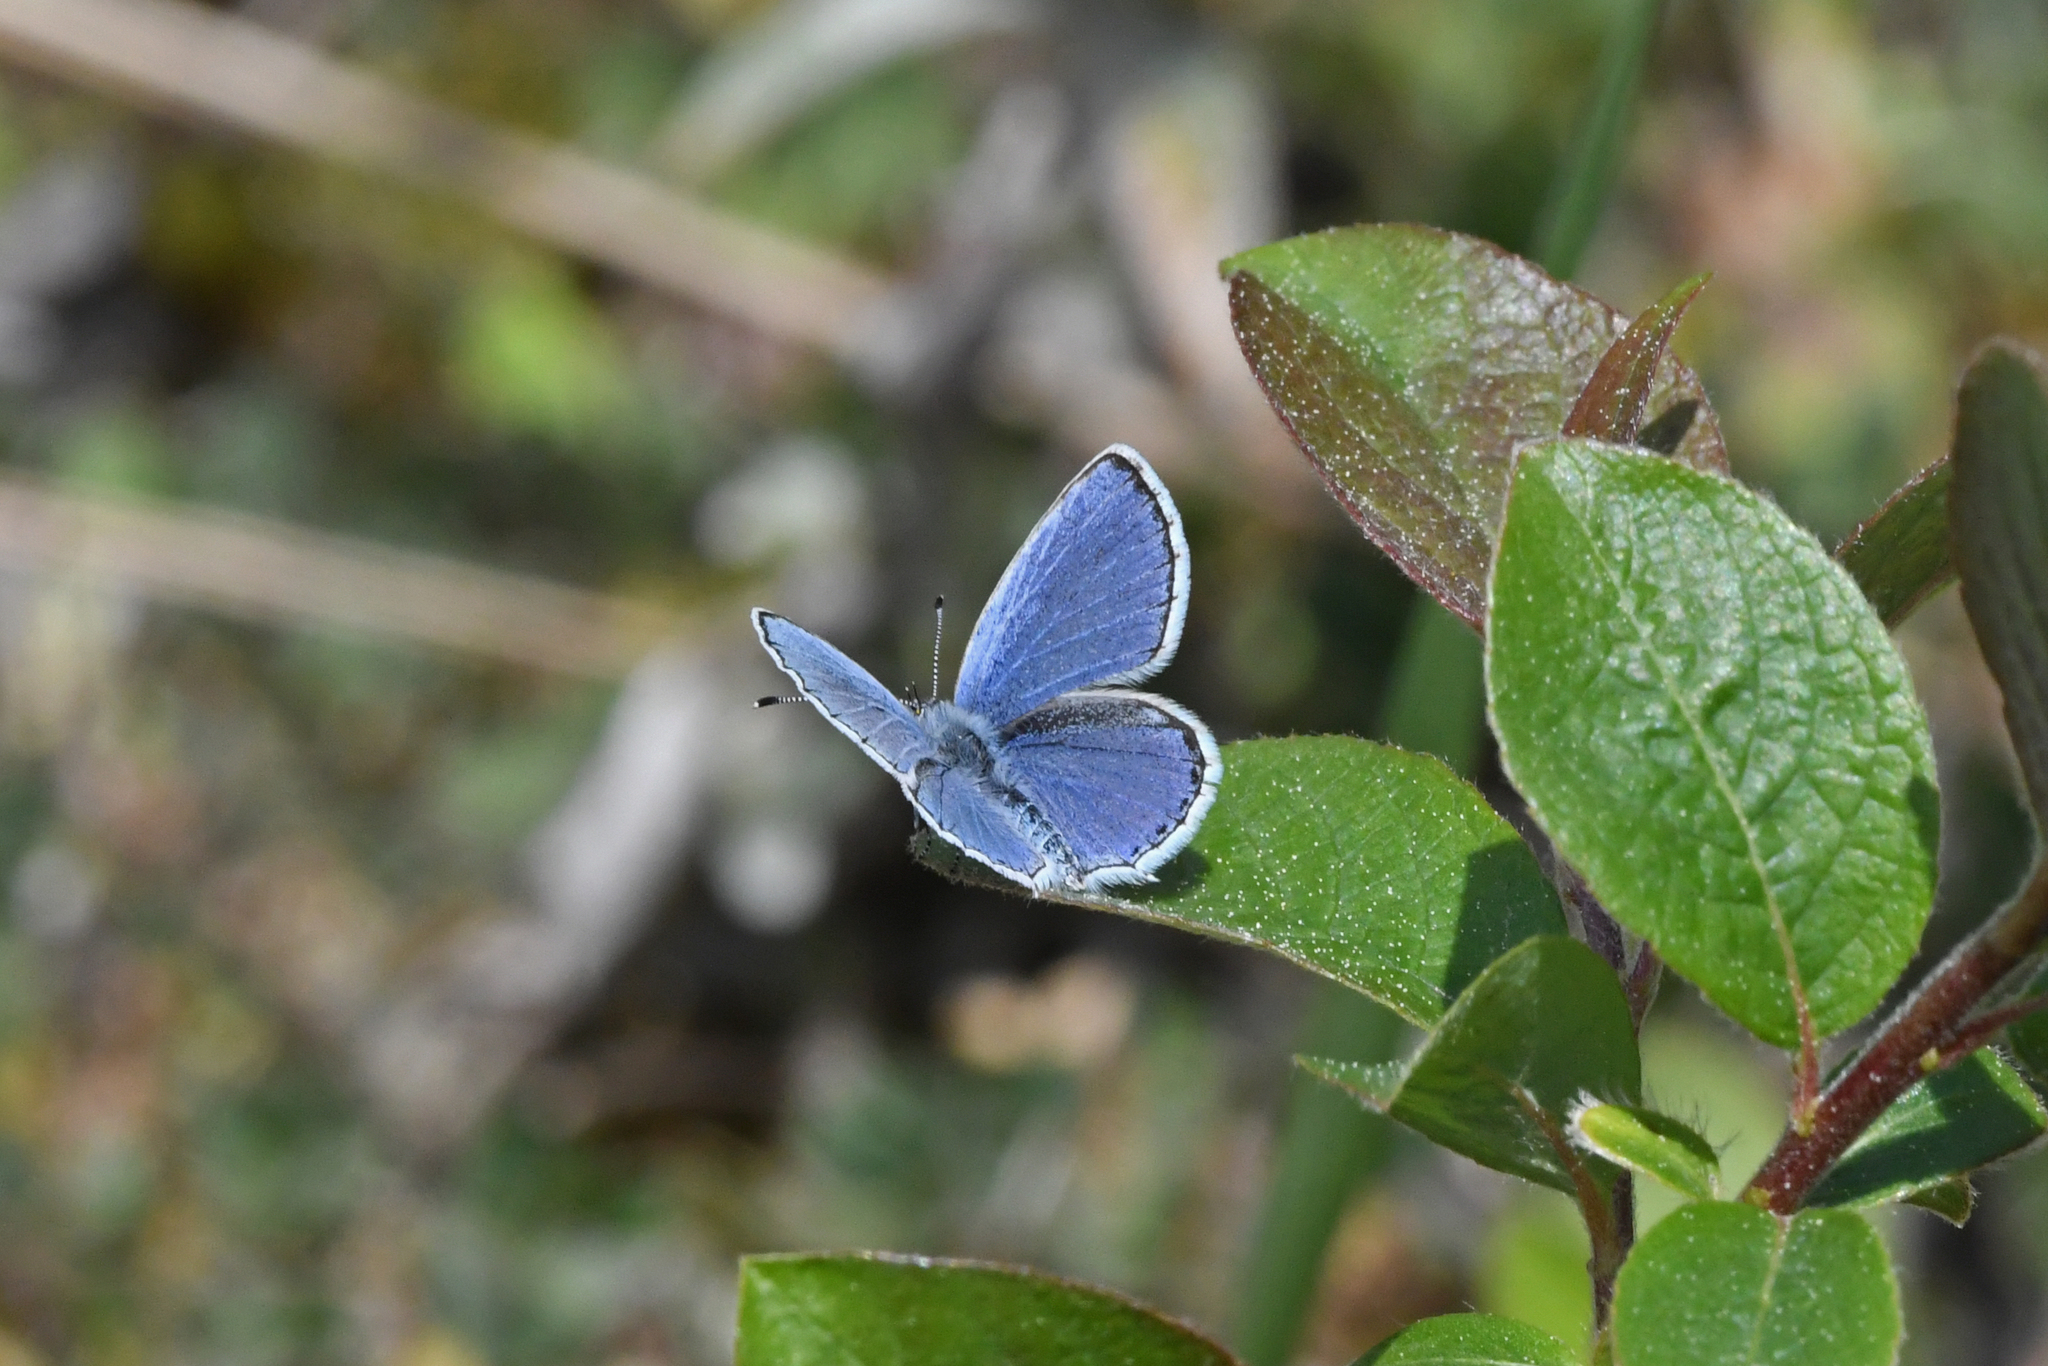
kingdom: Animalia
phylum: Arthropoda
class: Insecta
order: Lepidoptera
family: Lycaenidae
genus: Elkalyce
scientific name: Elkalyce argiades
